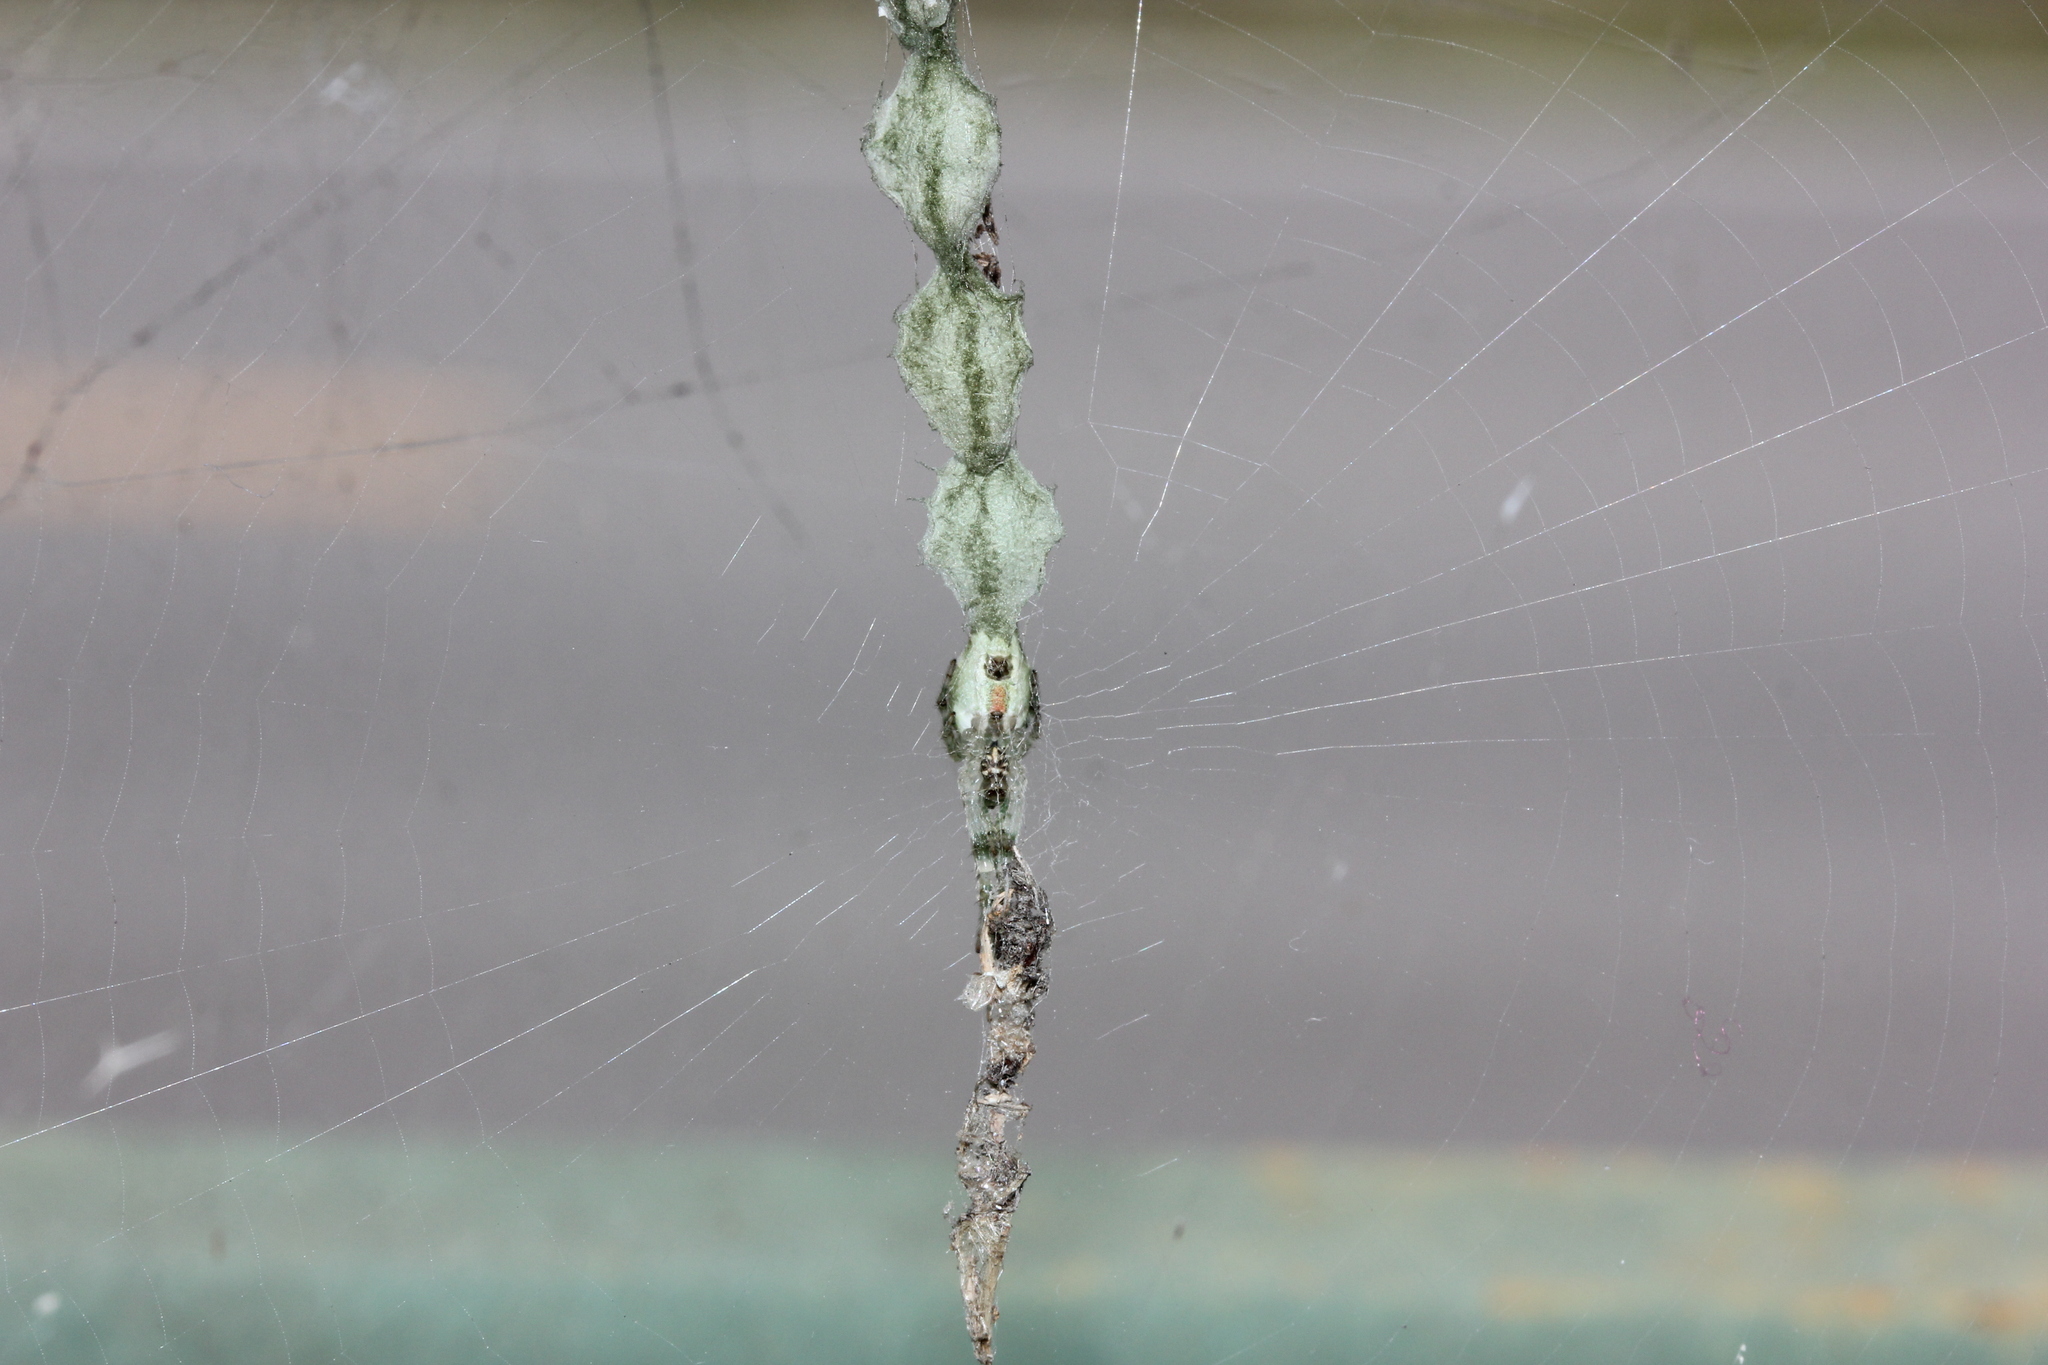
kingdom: Animalia
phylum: Arthropoda
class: Arachnida
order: Araneae
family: Araneidae
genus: Allocyclosa
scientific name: Allocyclosa bifurca
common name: Orb weavers
